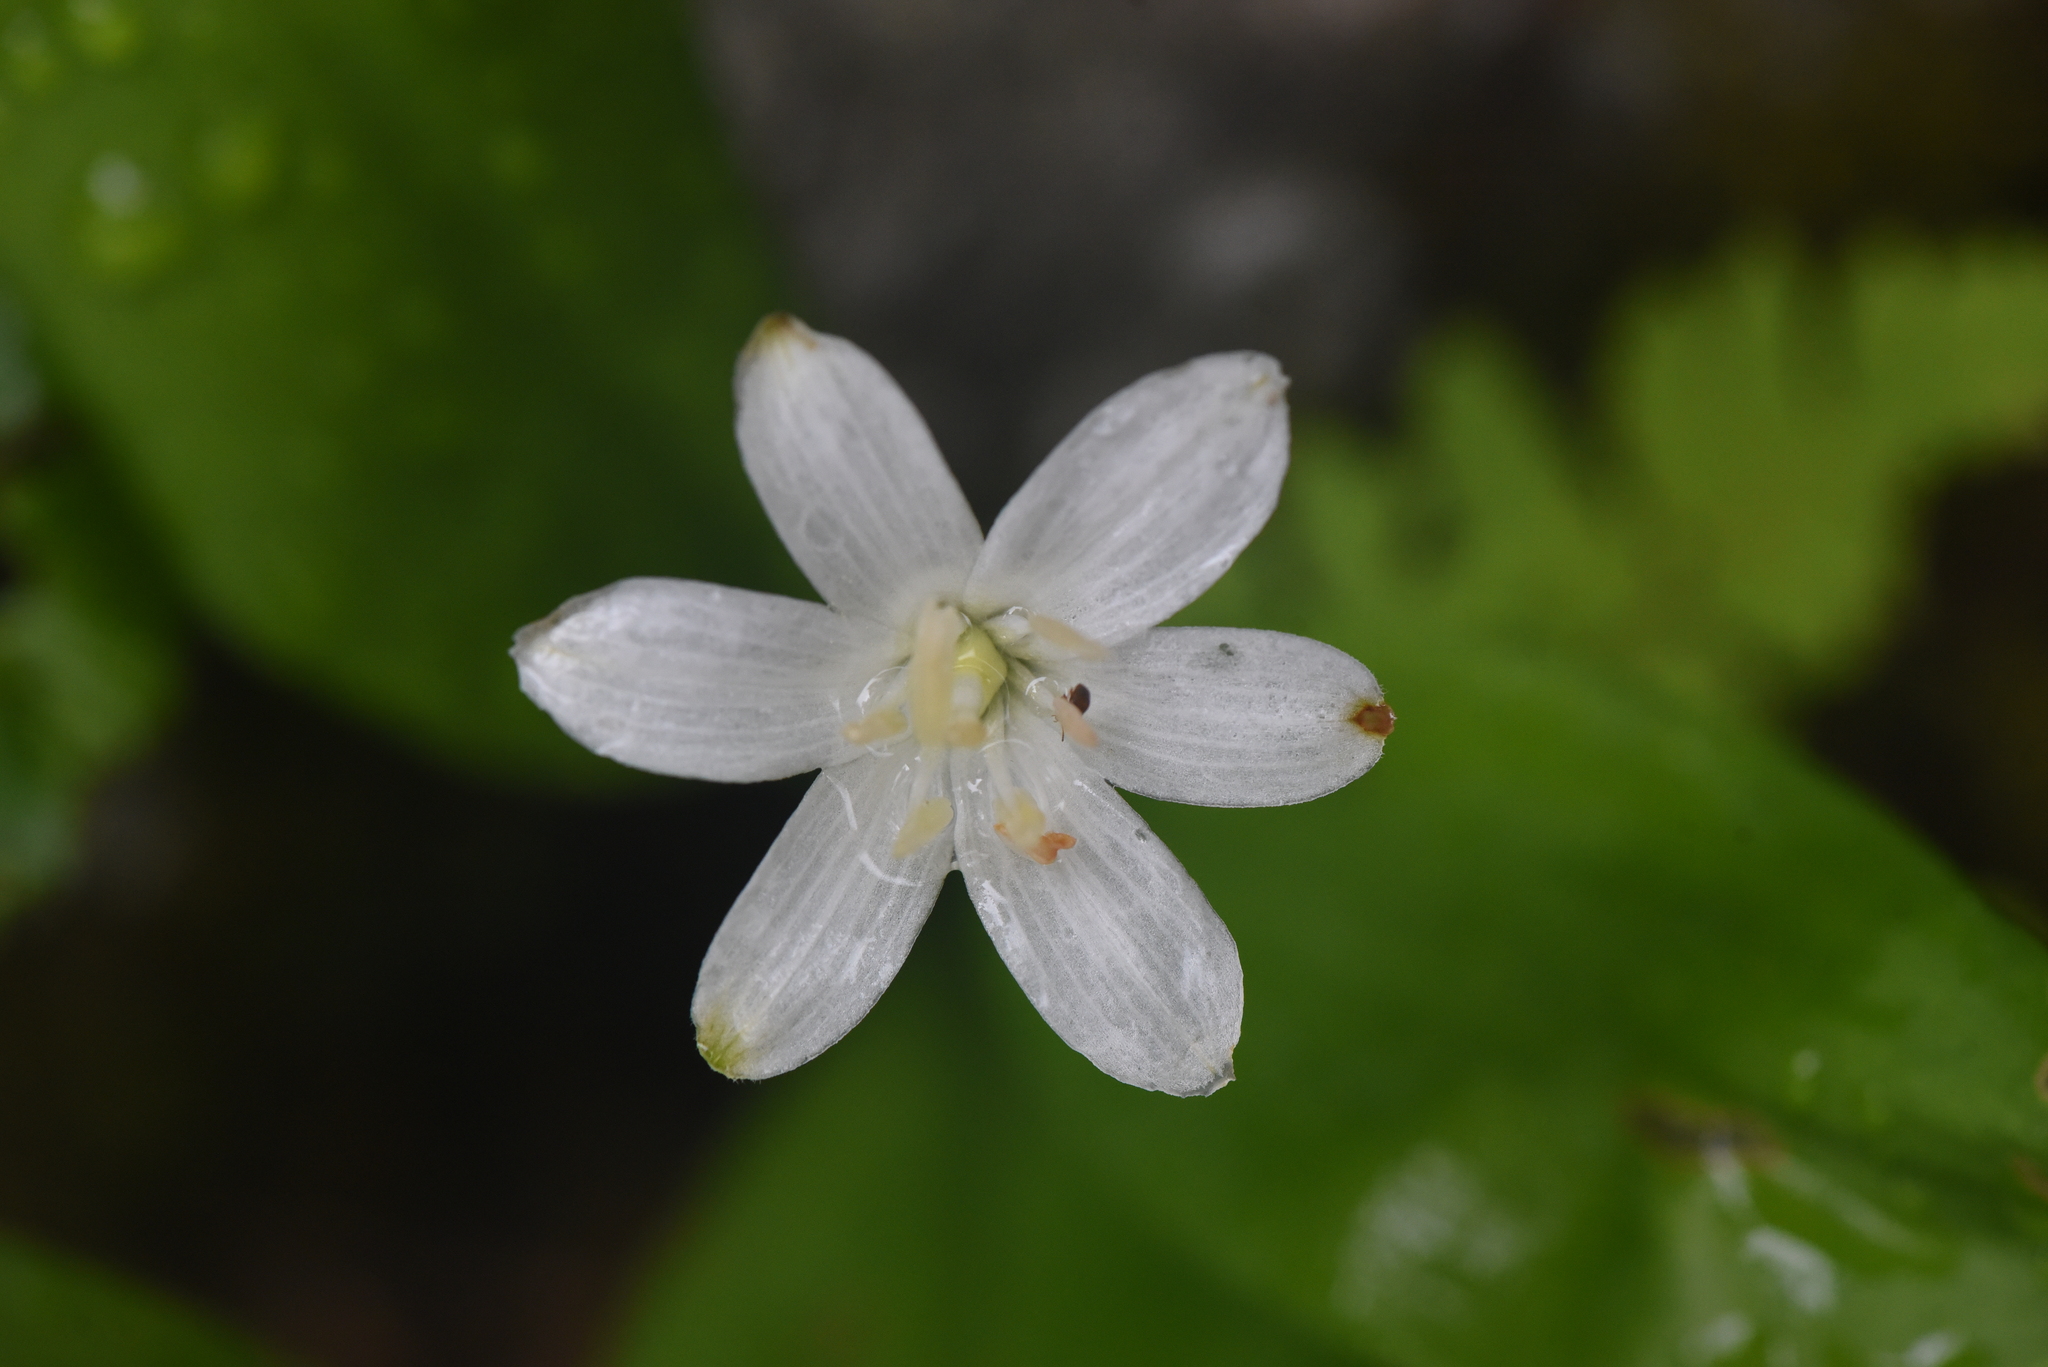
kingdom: Plantae
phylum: Tracheophyta
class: Liliopsida
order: Liliales
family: Liliaceae
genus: Clintonia
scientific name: Clintonia uniflora
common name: Queen's cup
